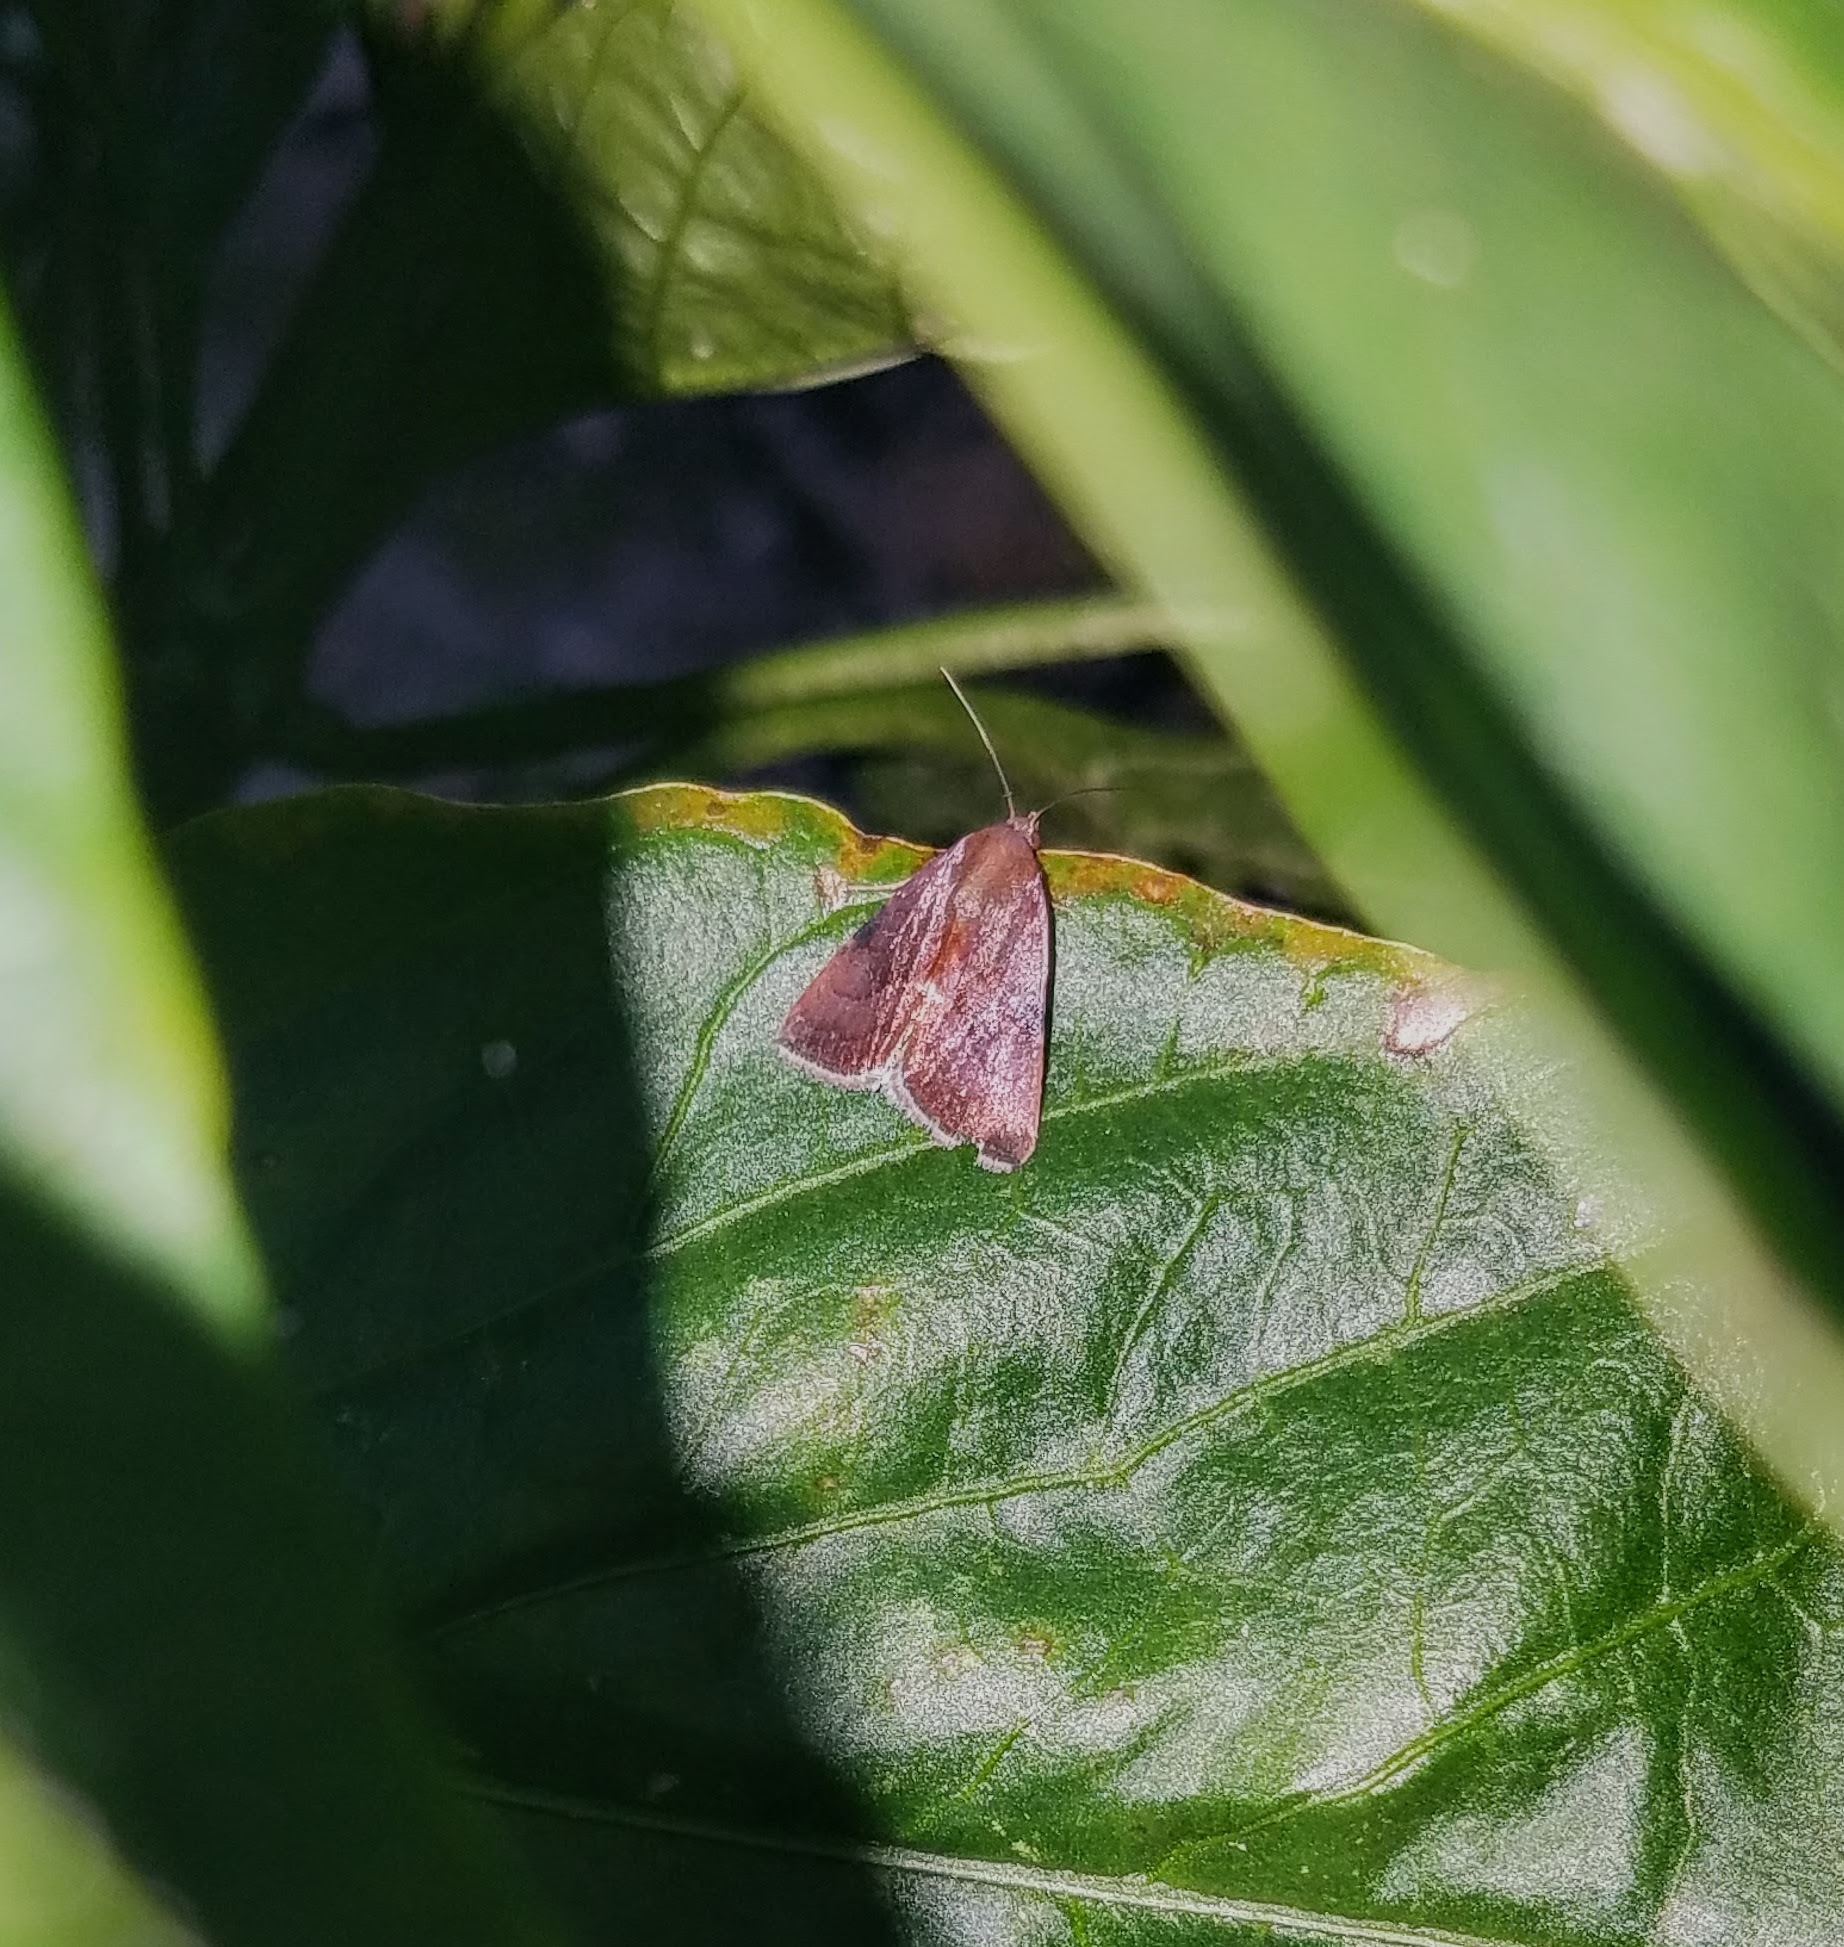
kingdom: Animalia
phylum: Arthropoda
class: Insecta
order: Lepidoptera
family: Noctuidae
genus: Galgula
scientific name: Galgula partita
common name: Wedgeling
